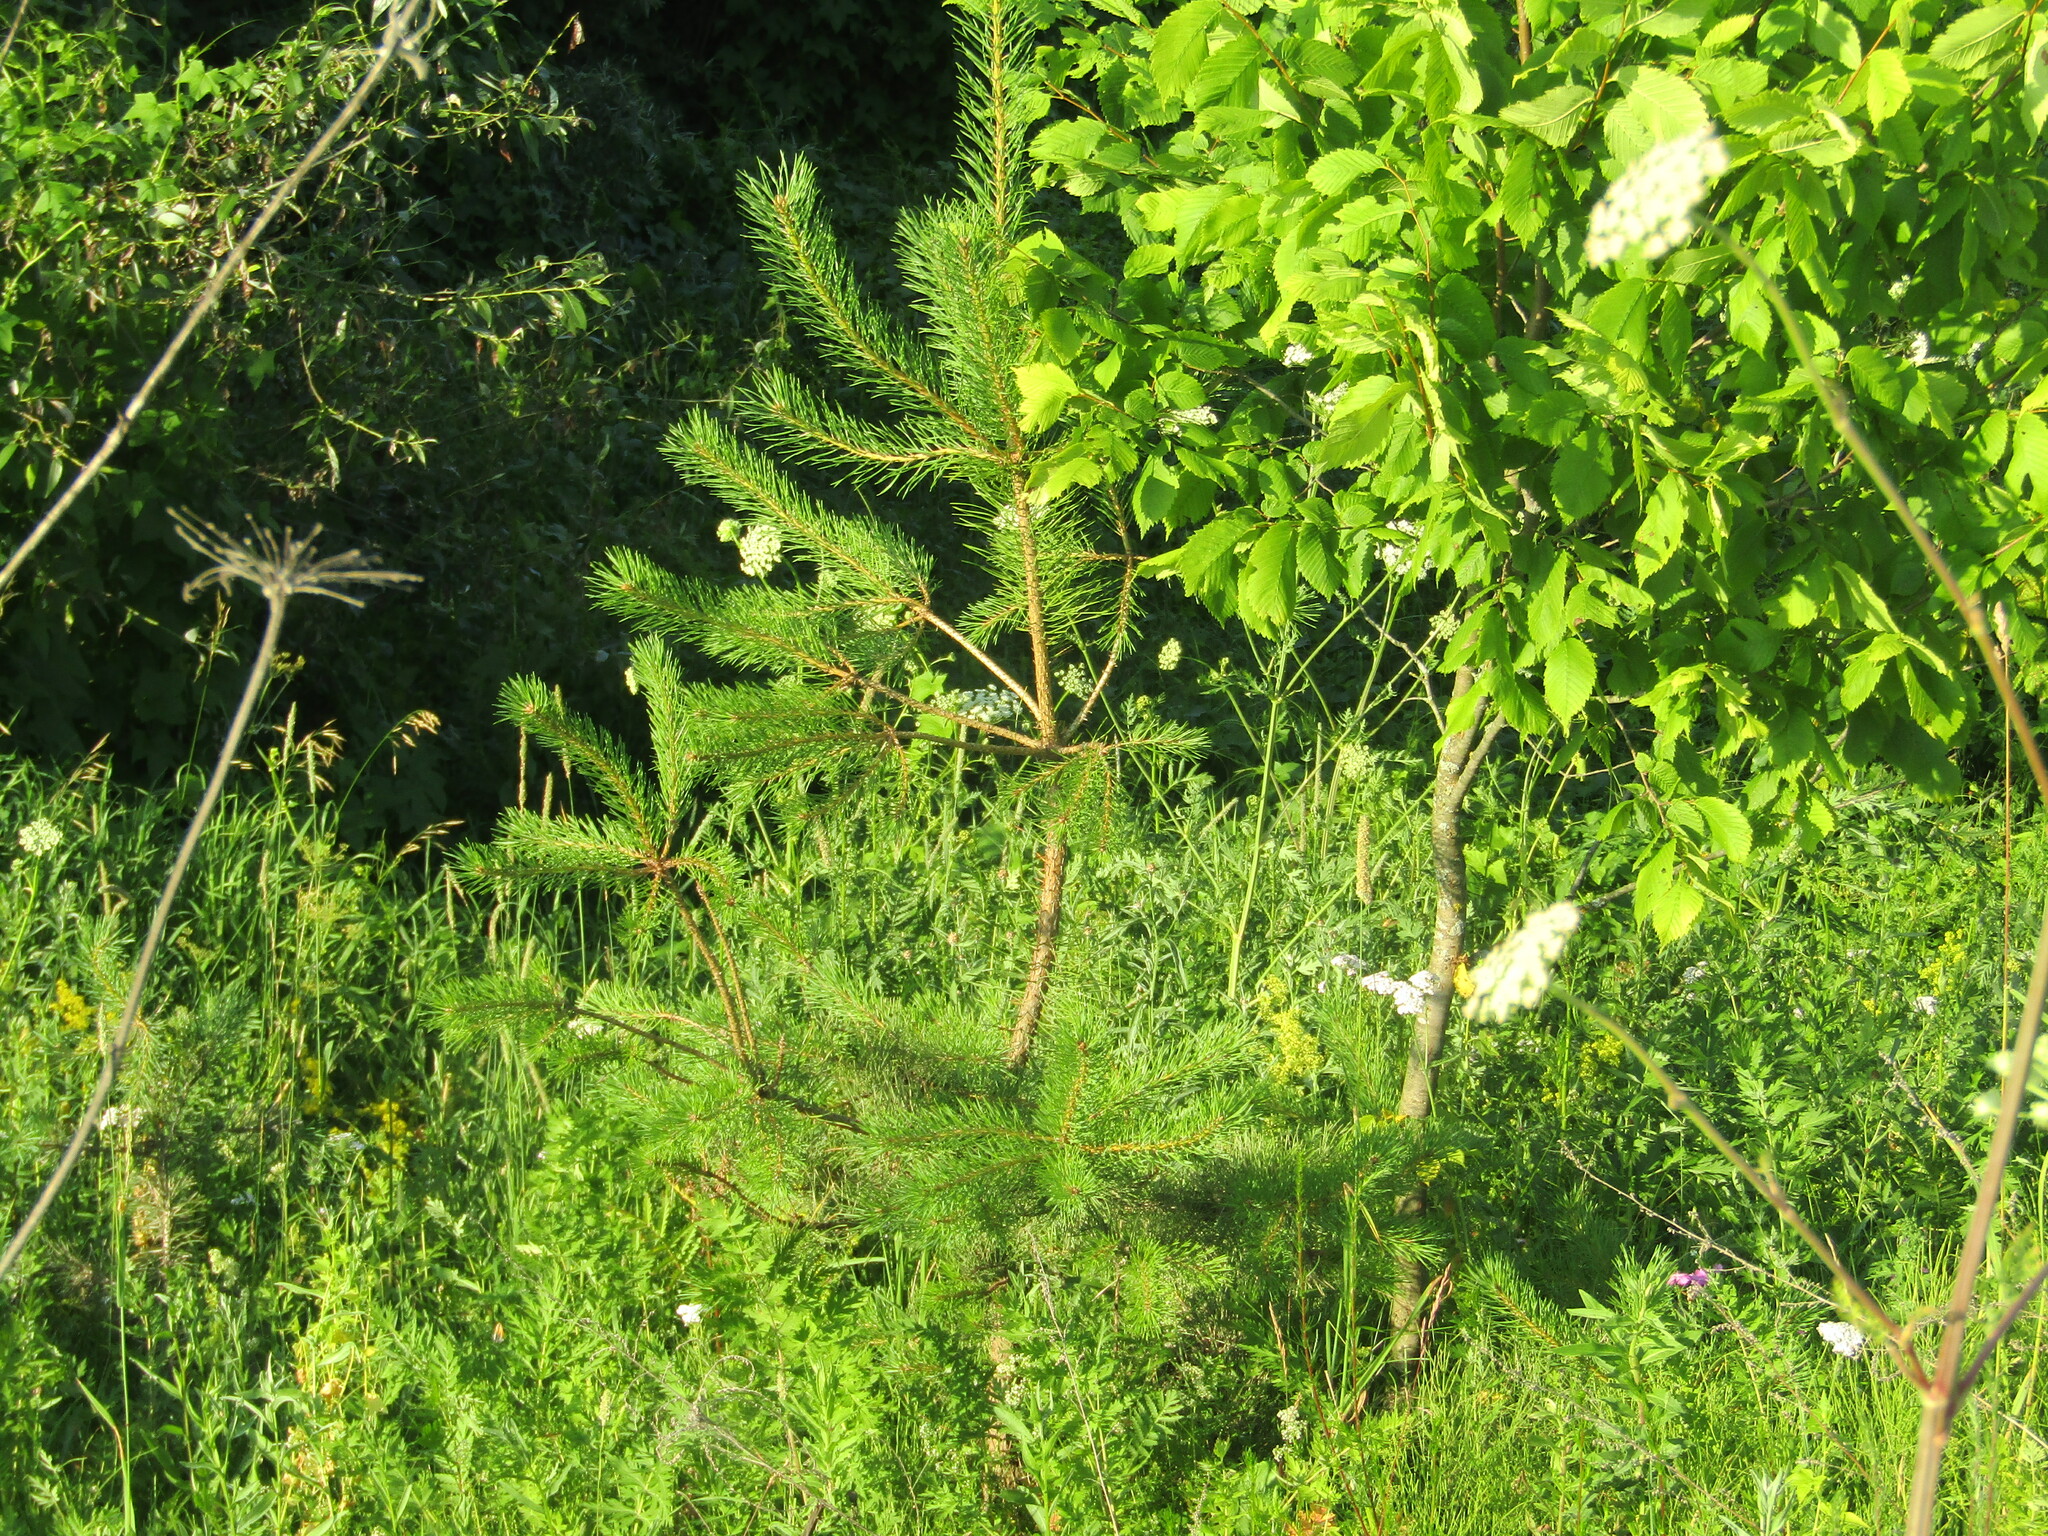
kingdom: Plantae
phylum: Tracheophyta
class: Pinopsida
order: Pinales
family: Pinaceae
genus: Pinus
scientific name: Pinus sylvestris
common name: Scots pine
